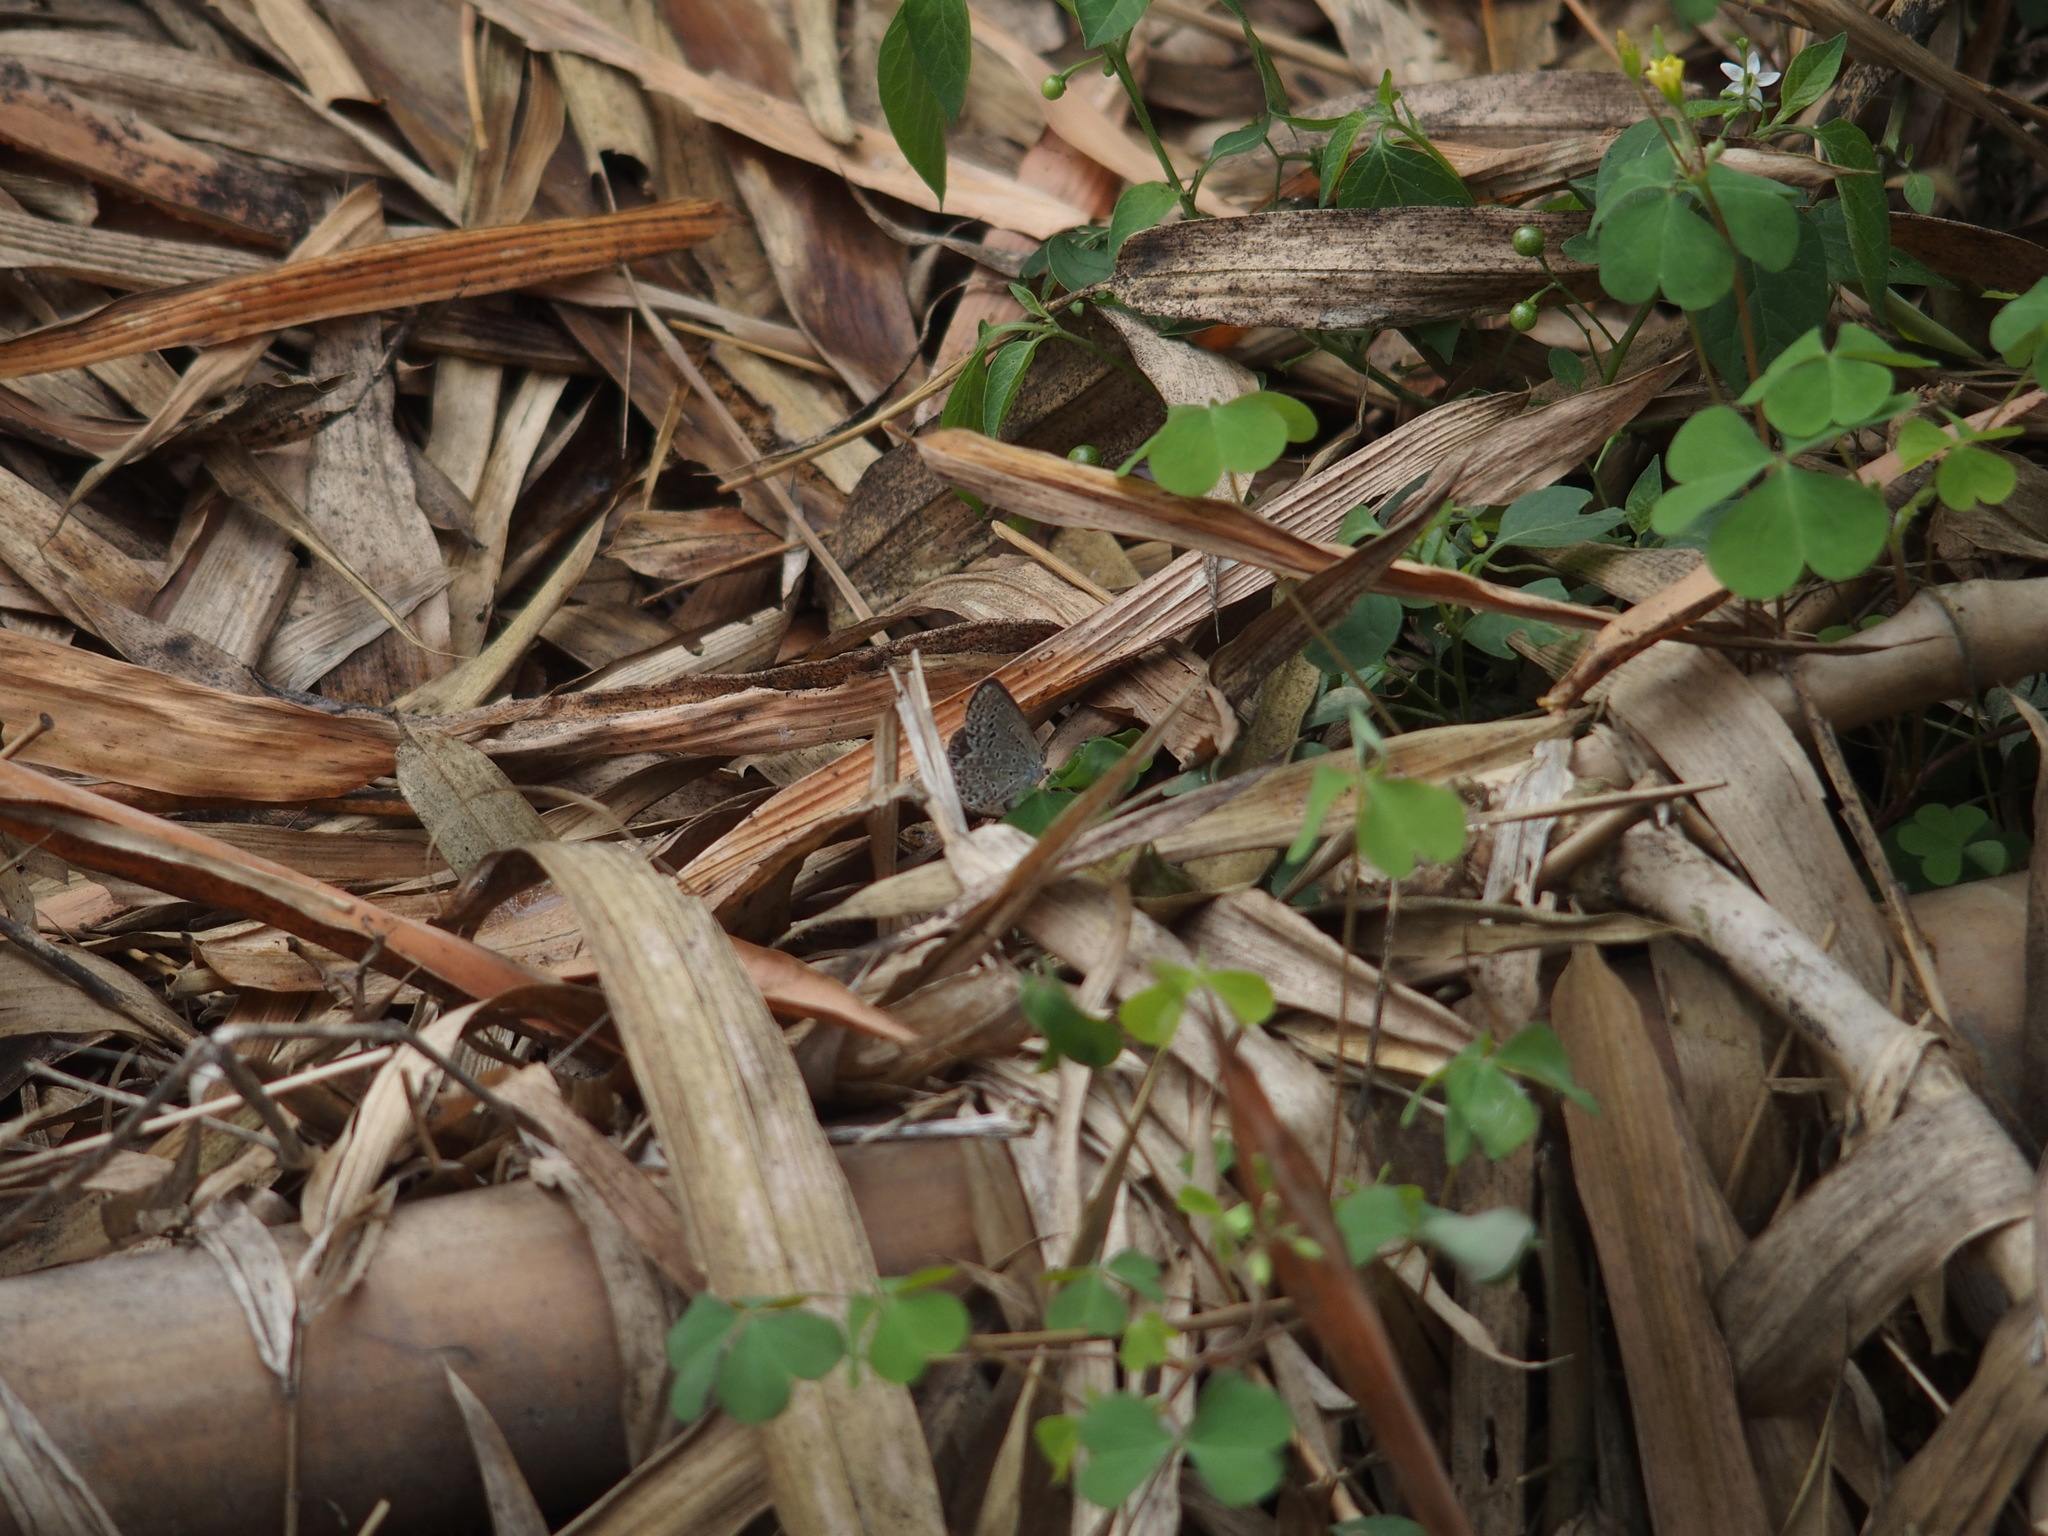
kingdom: Animalia
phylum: Arthropoda
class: Insecta
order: Lepidoptera
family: Lycaenidae
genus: Pseudozizeeria
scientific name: Pseudozizeeria maha
